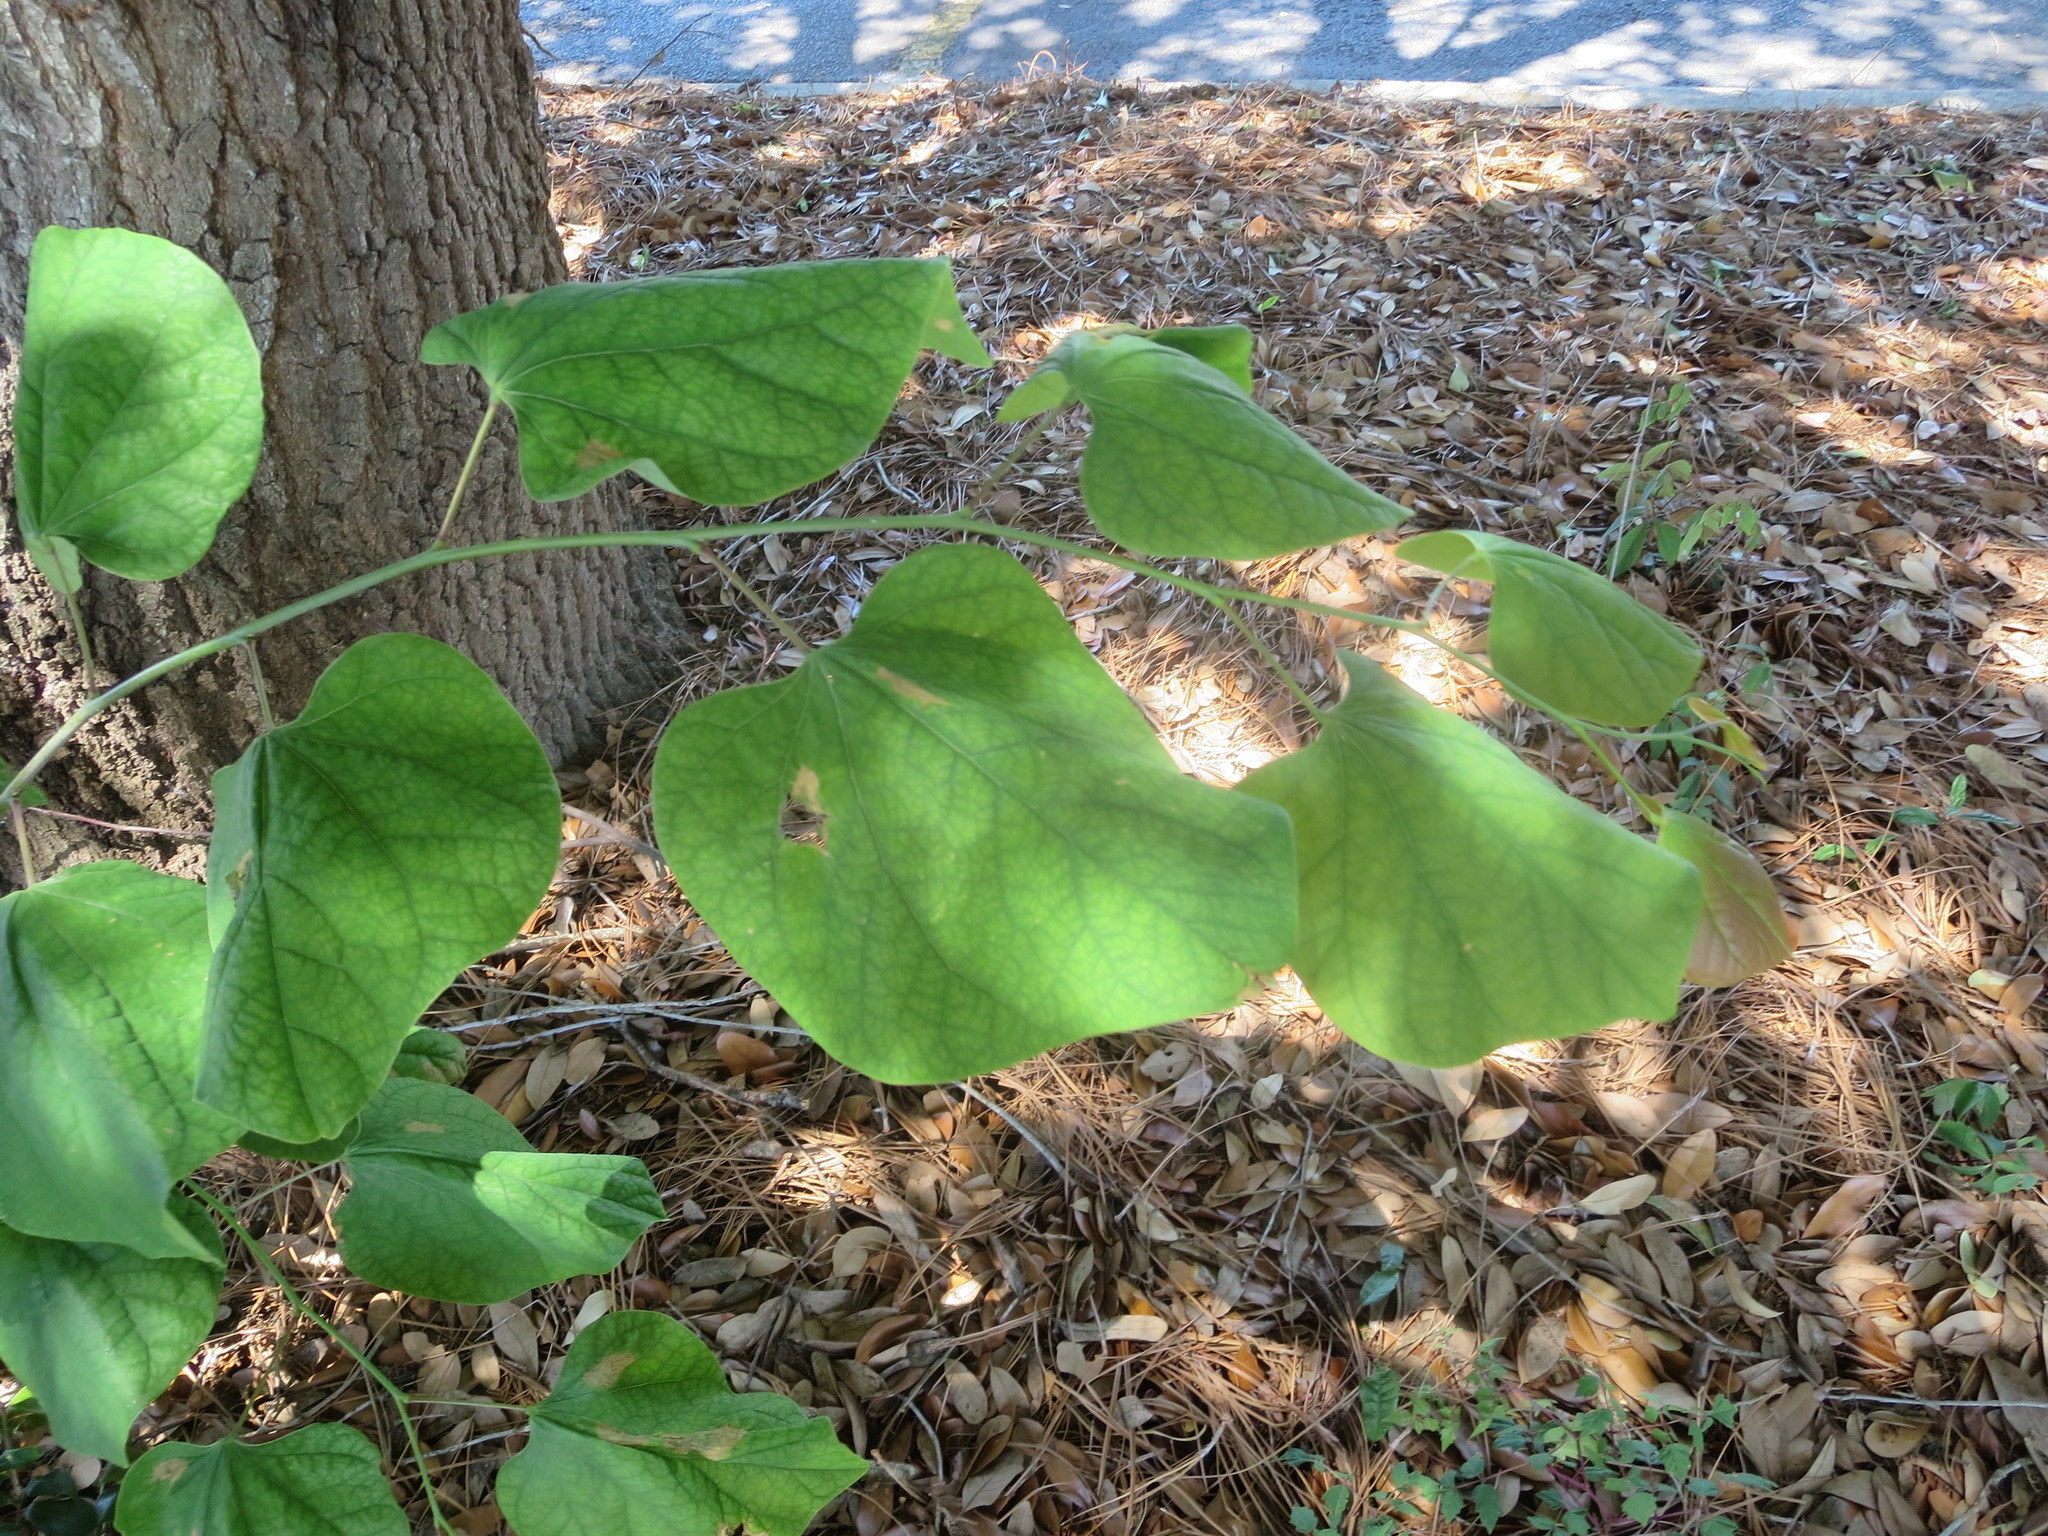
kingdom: Plantae
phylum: Tracheophyta
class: Magnoliopsida
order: Fabales
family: Fabaceae
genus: Cercis
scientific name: Cercis canadensis
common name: Eastern redbud
